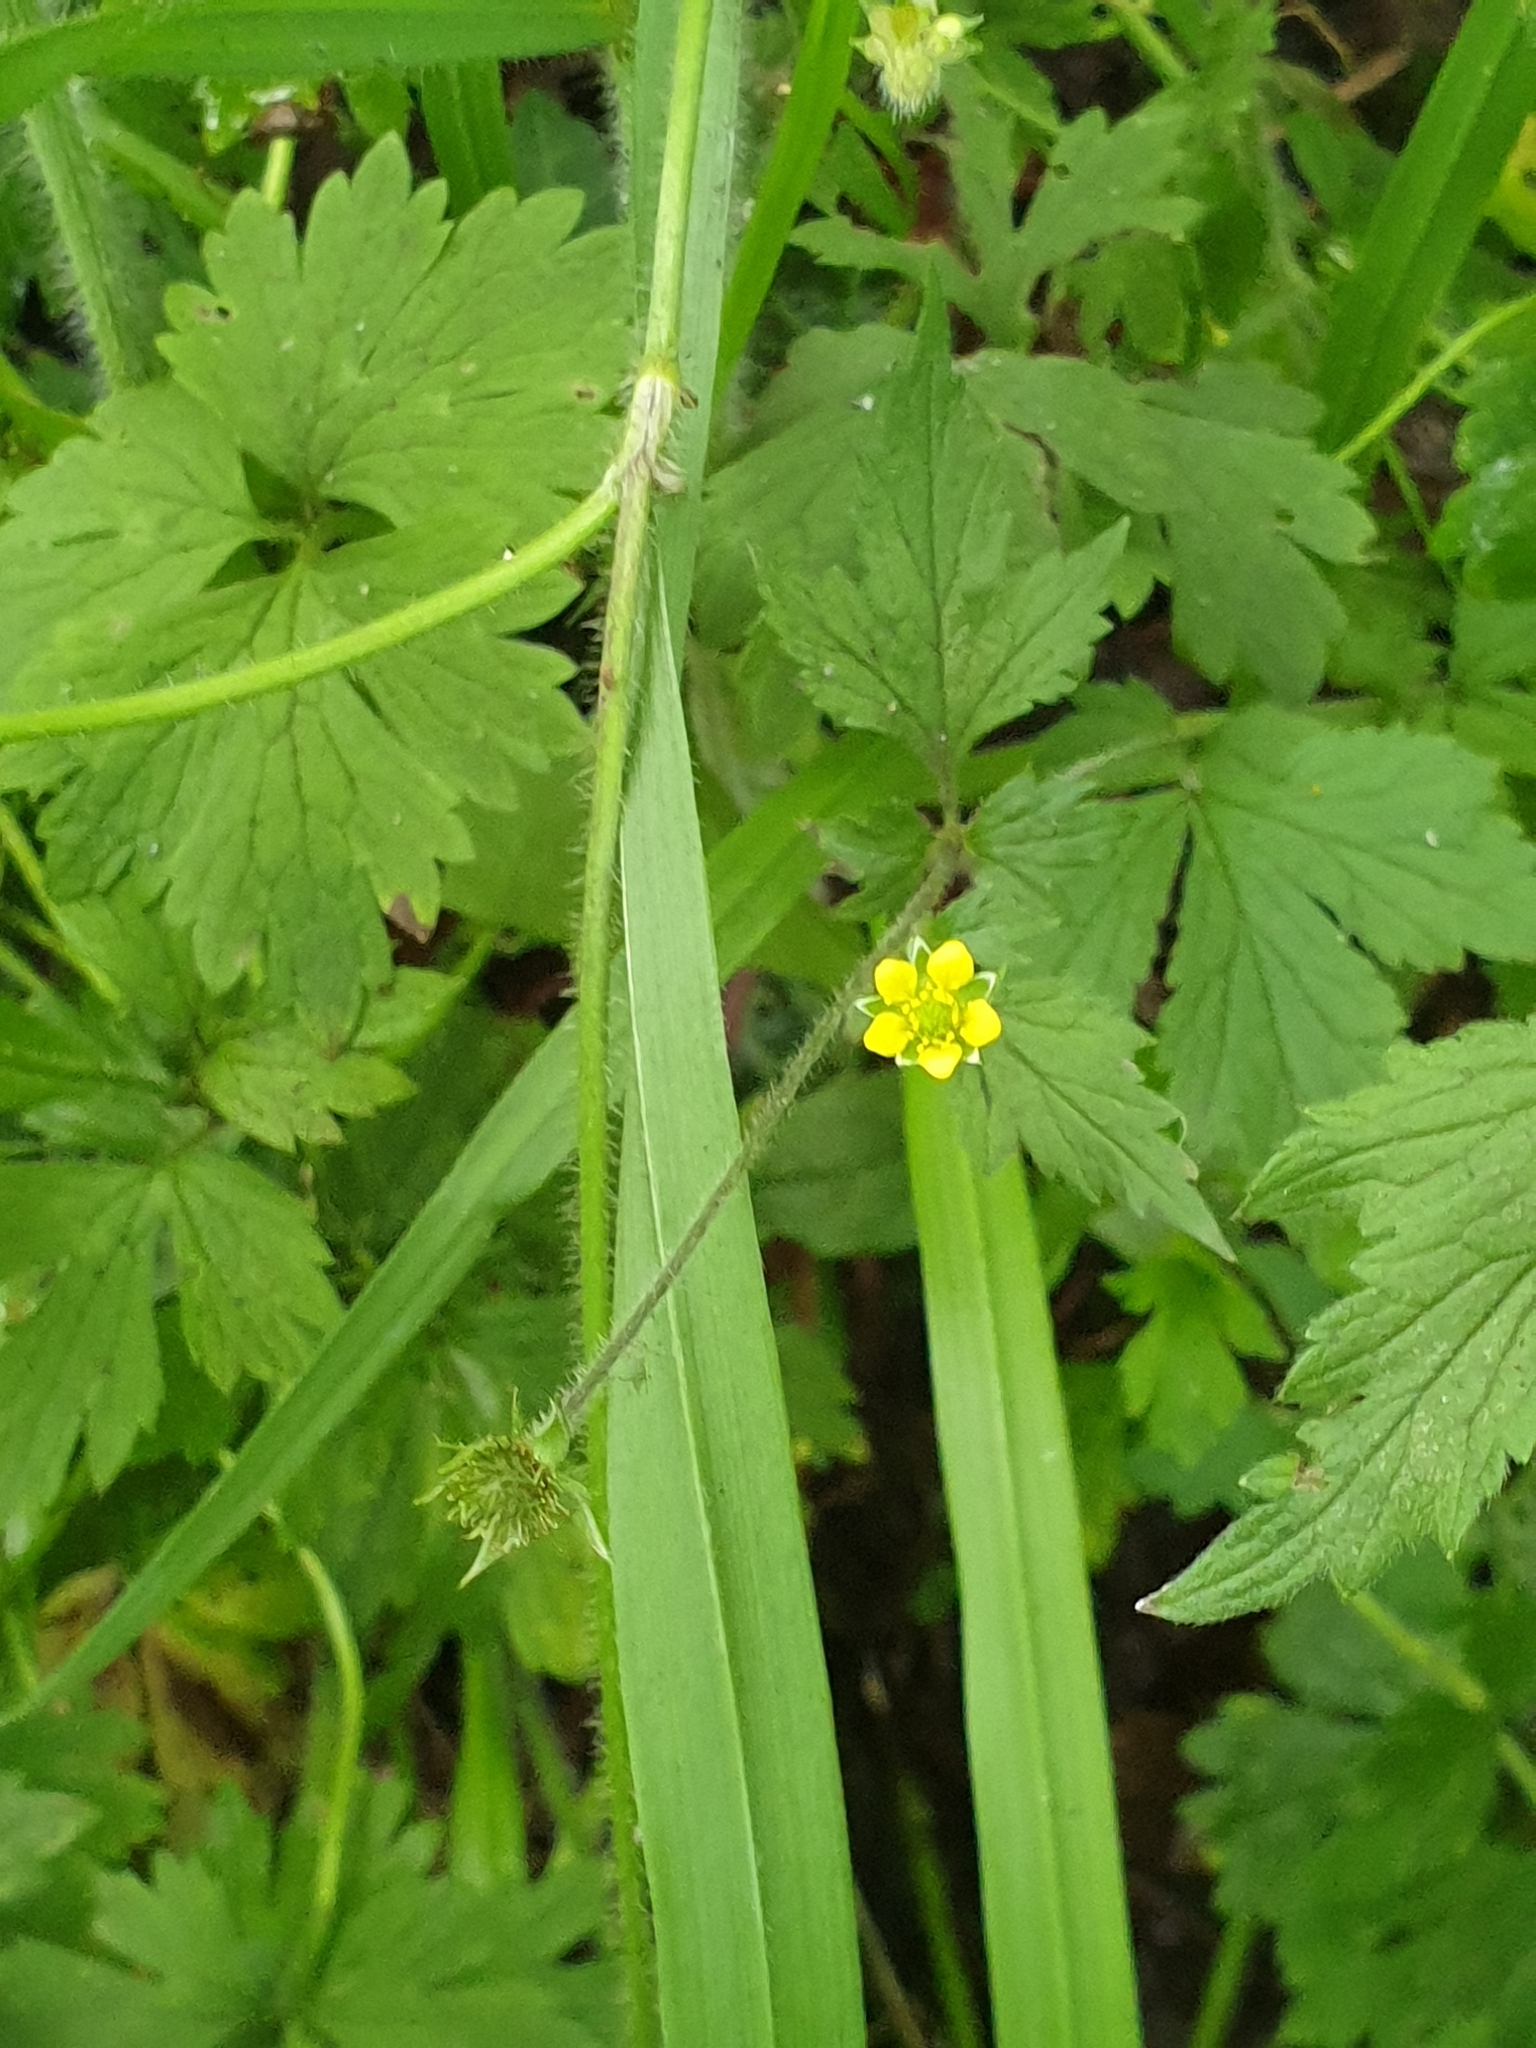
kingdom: Plantae
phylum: Tracheophyta
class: Magnoliopsida
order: Rosales
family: Rosaceae
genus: Geum
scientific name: Geum urbanum
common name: Wood avens
